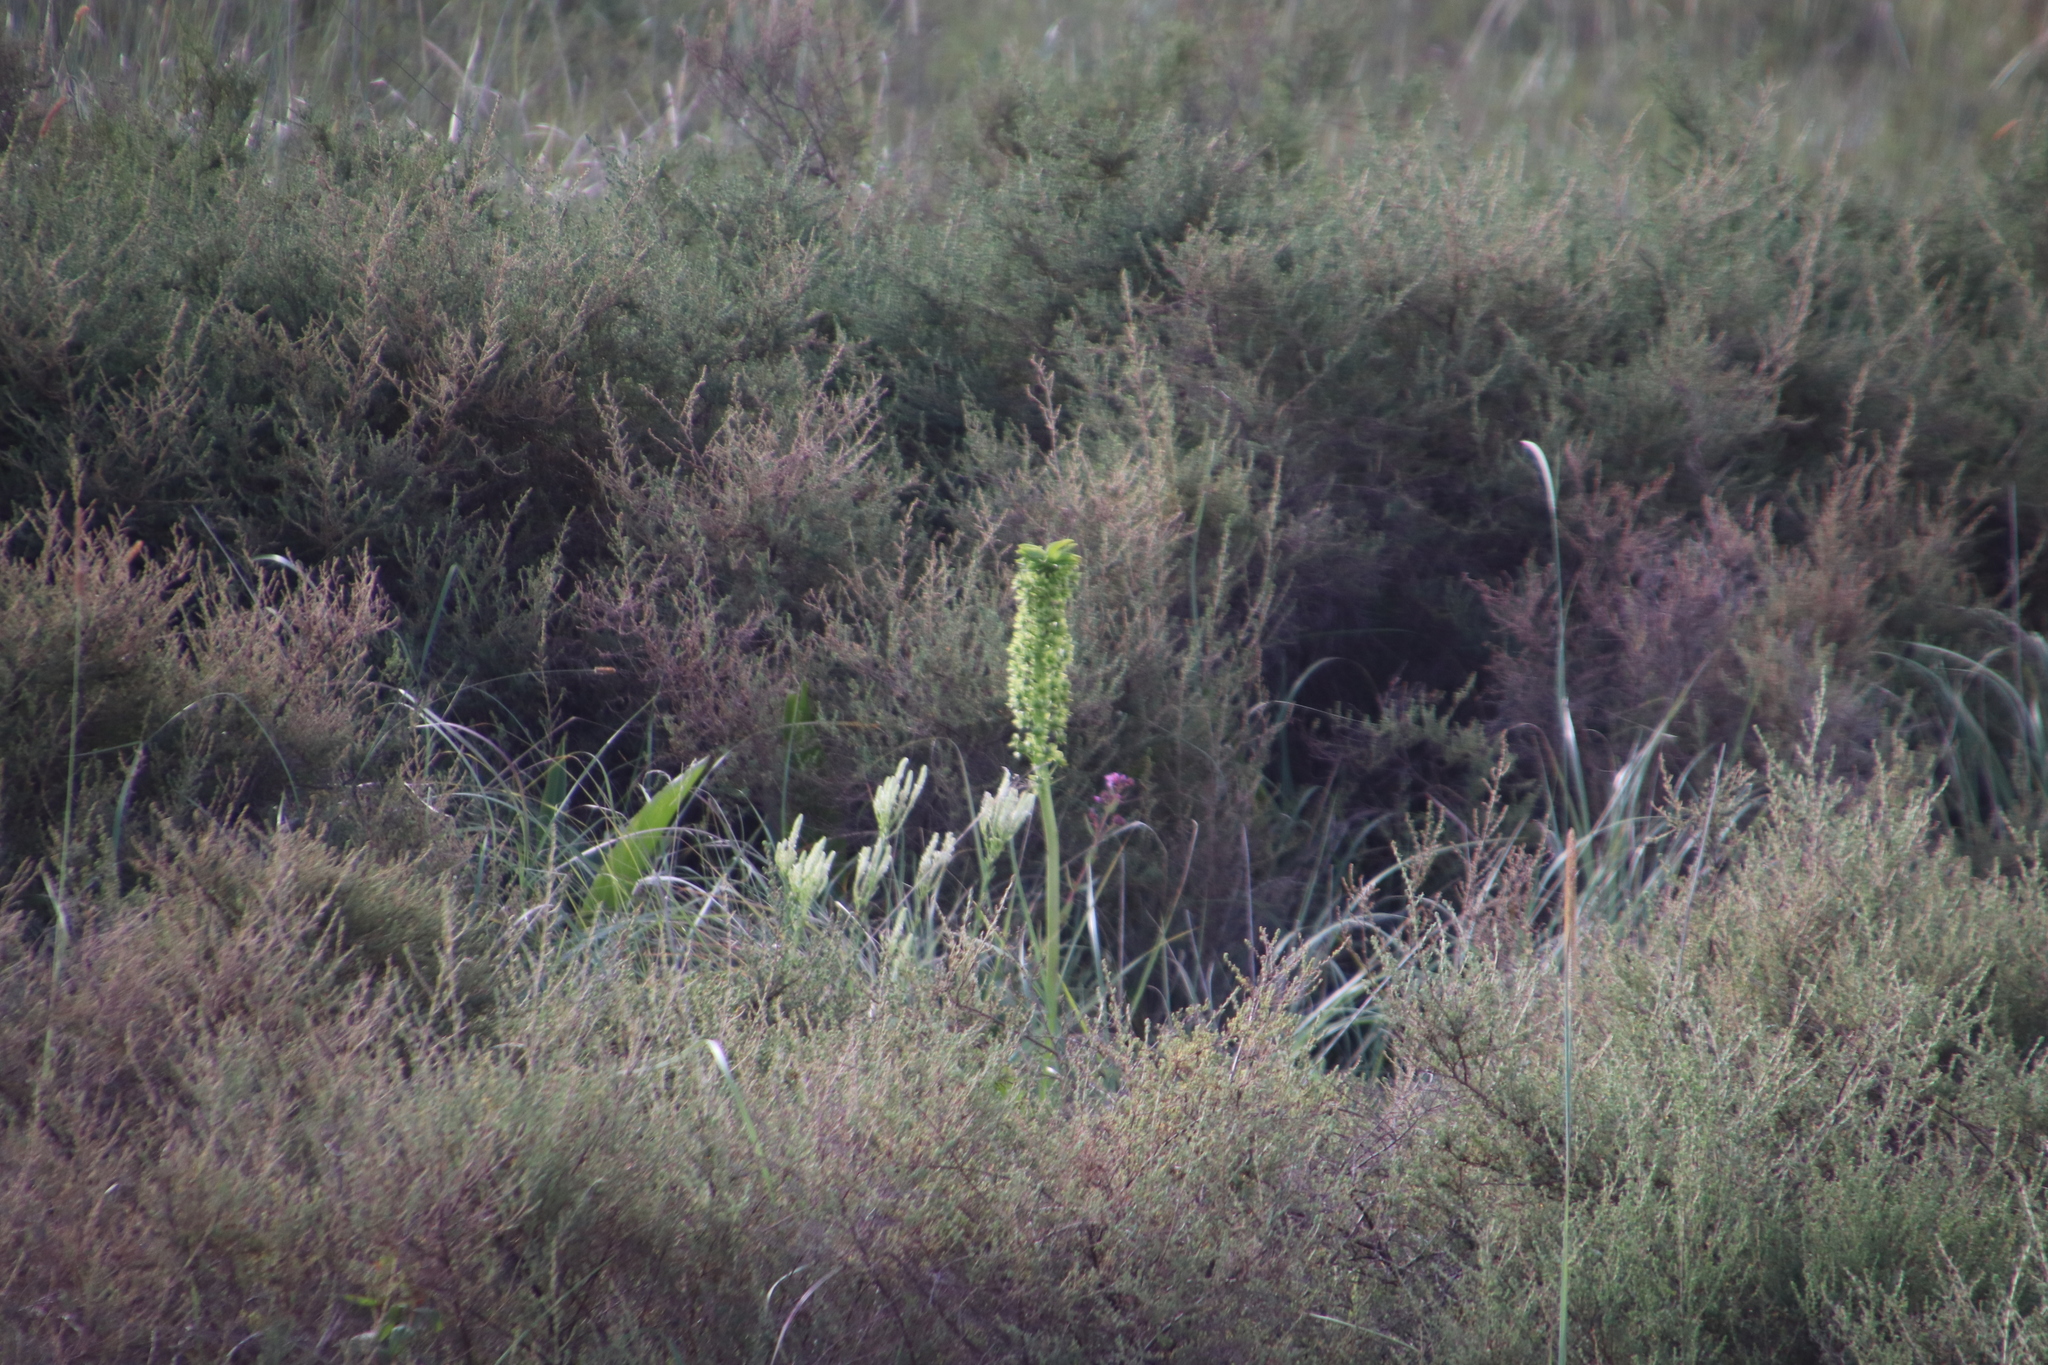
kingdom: Plantae
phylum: Tracheophyta
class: Liliopsida
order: Asparagales
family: Asparagaceae
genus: Eucomis
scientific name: Eucomis autumnalis
